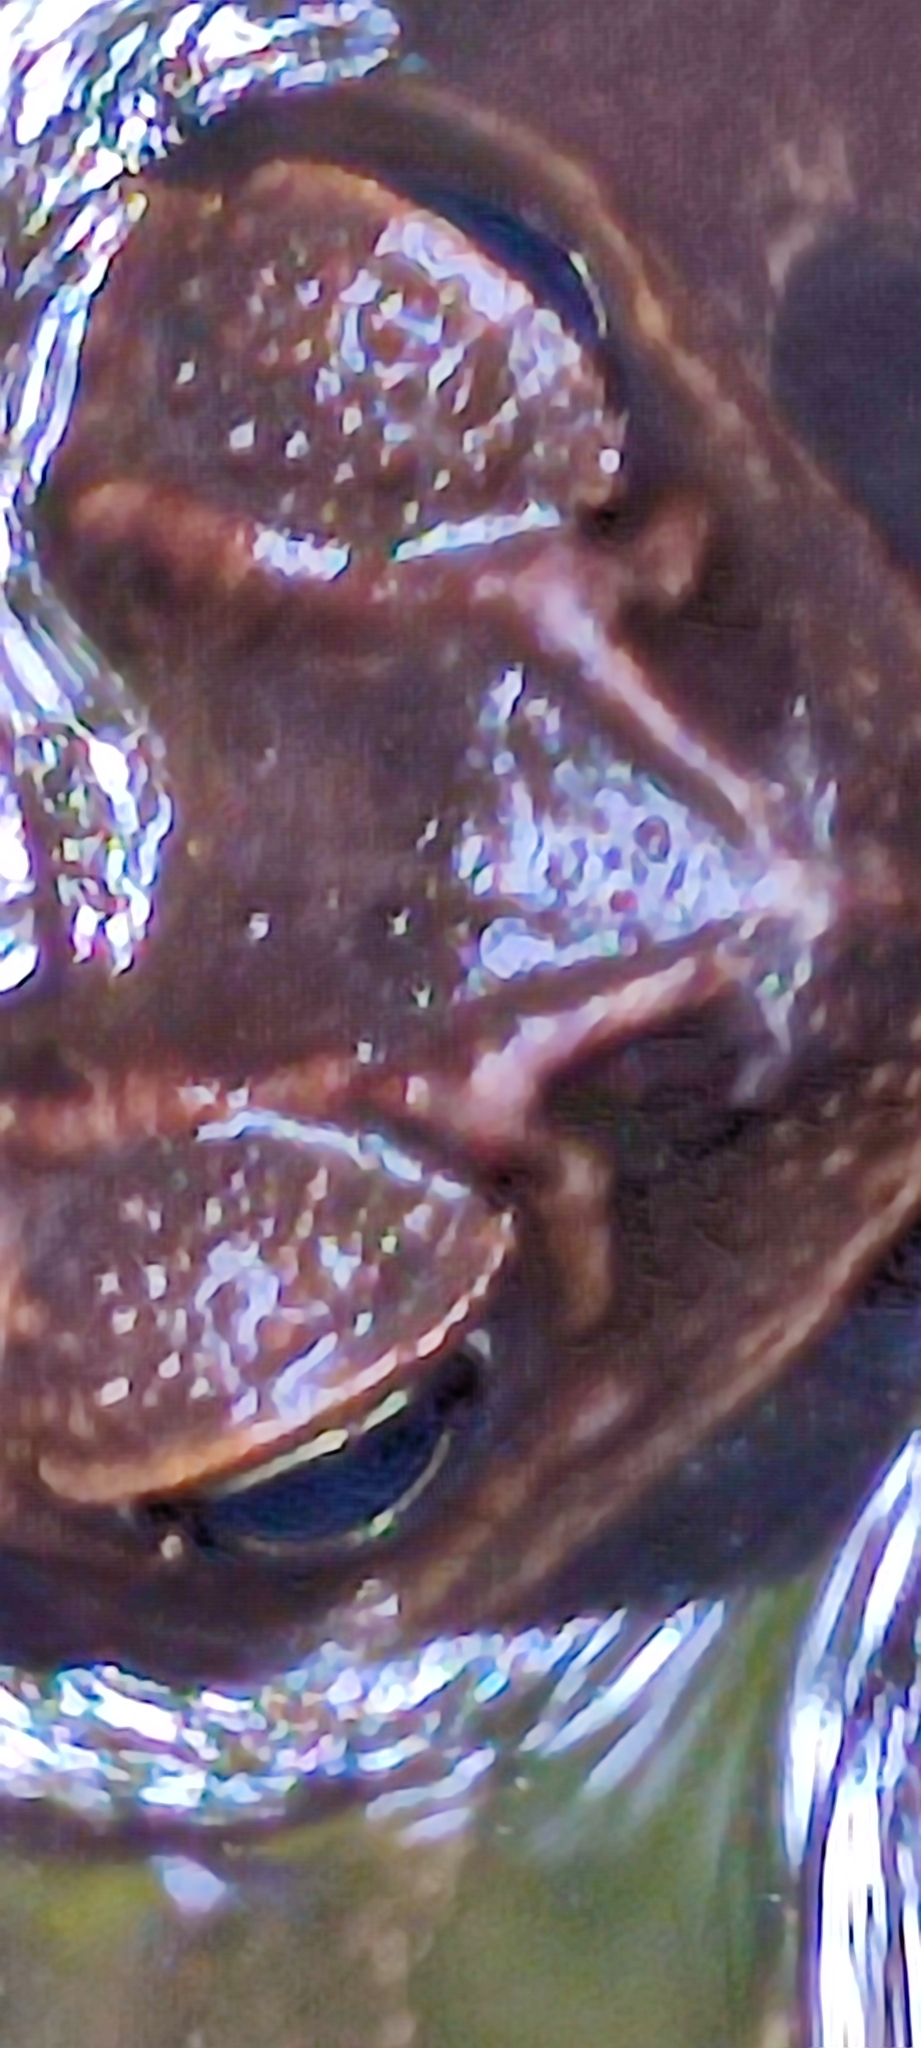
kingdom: Animalia
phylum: Chordata
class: Amphibia
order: Anura
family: Bufonidae
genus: Rhinella
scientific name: Rhinella marina
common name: Cane toad
